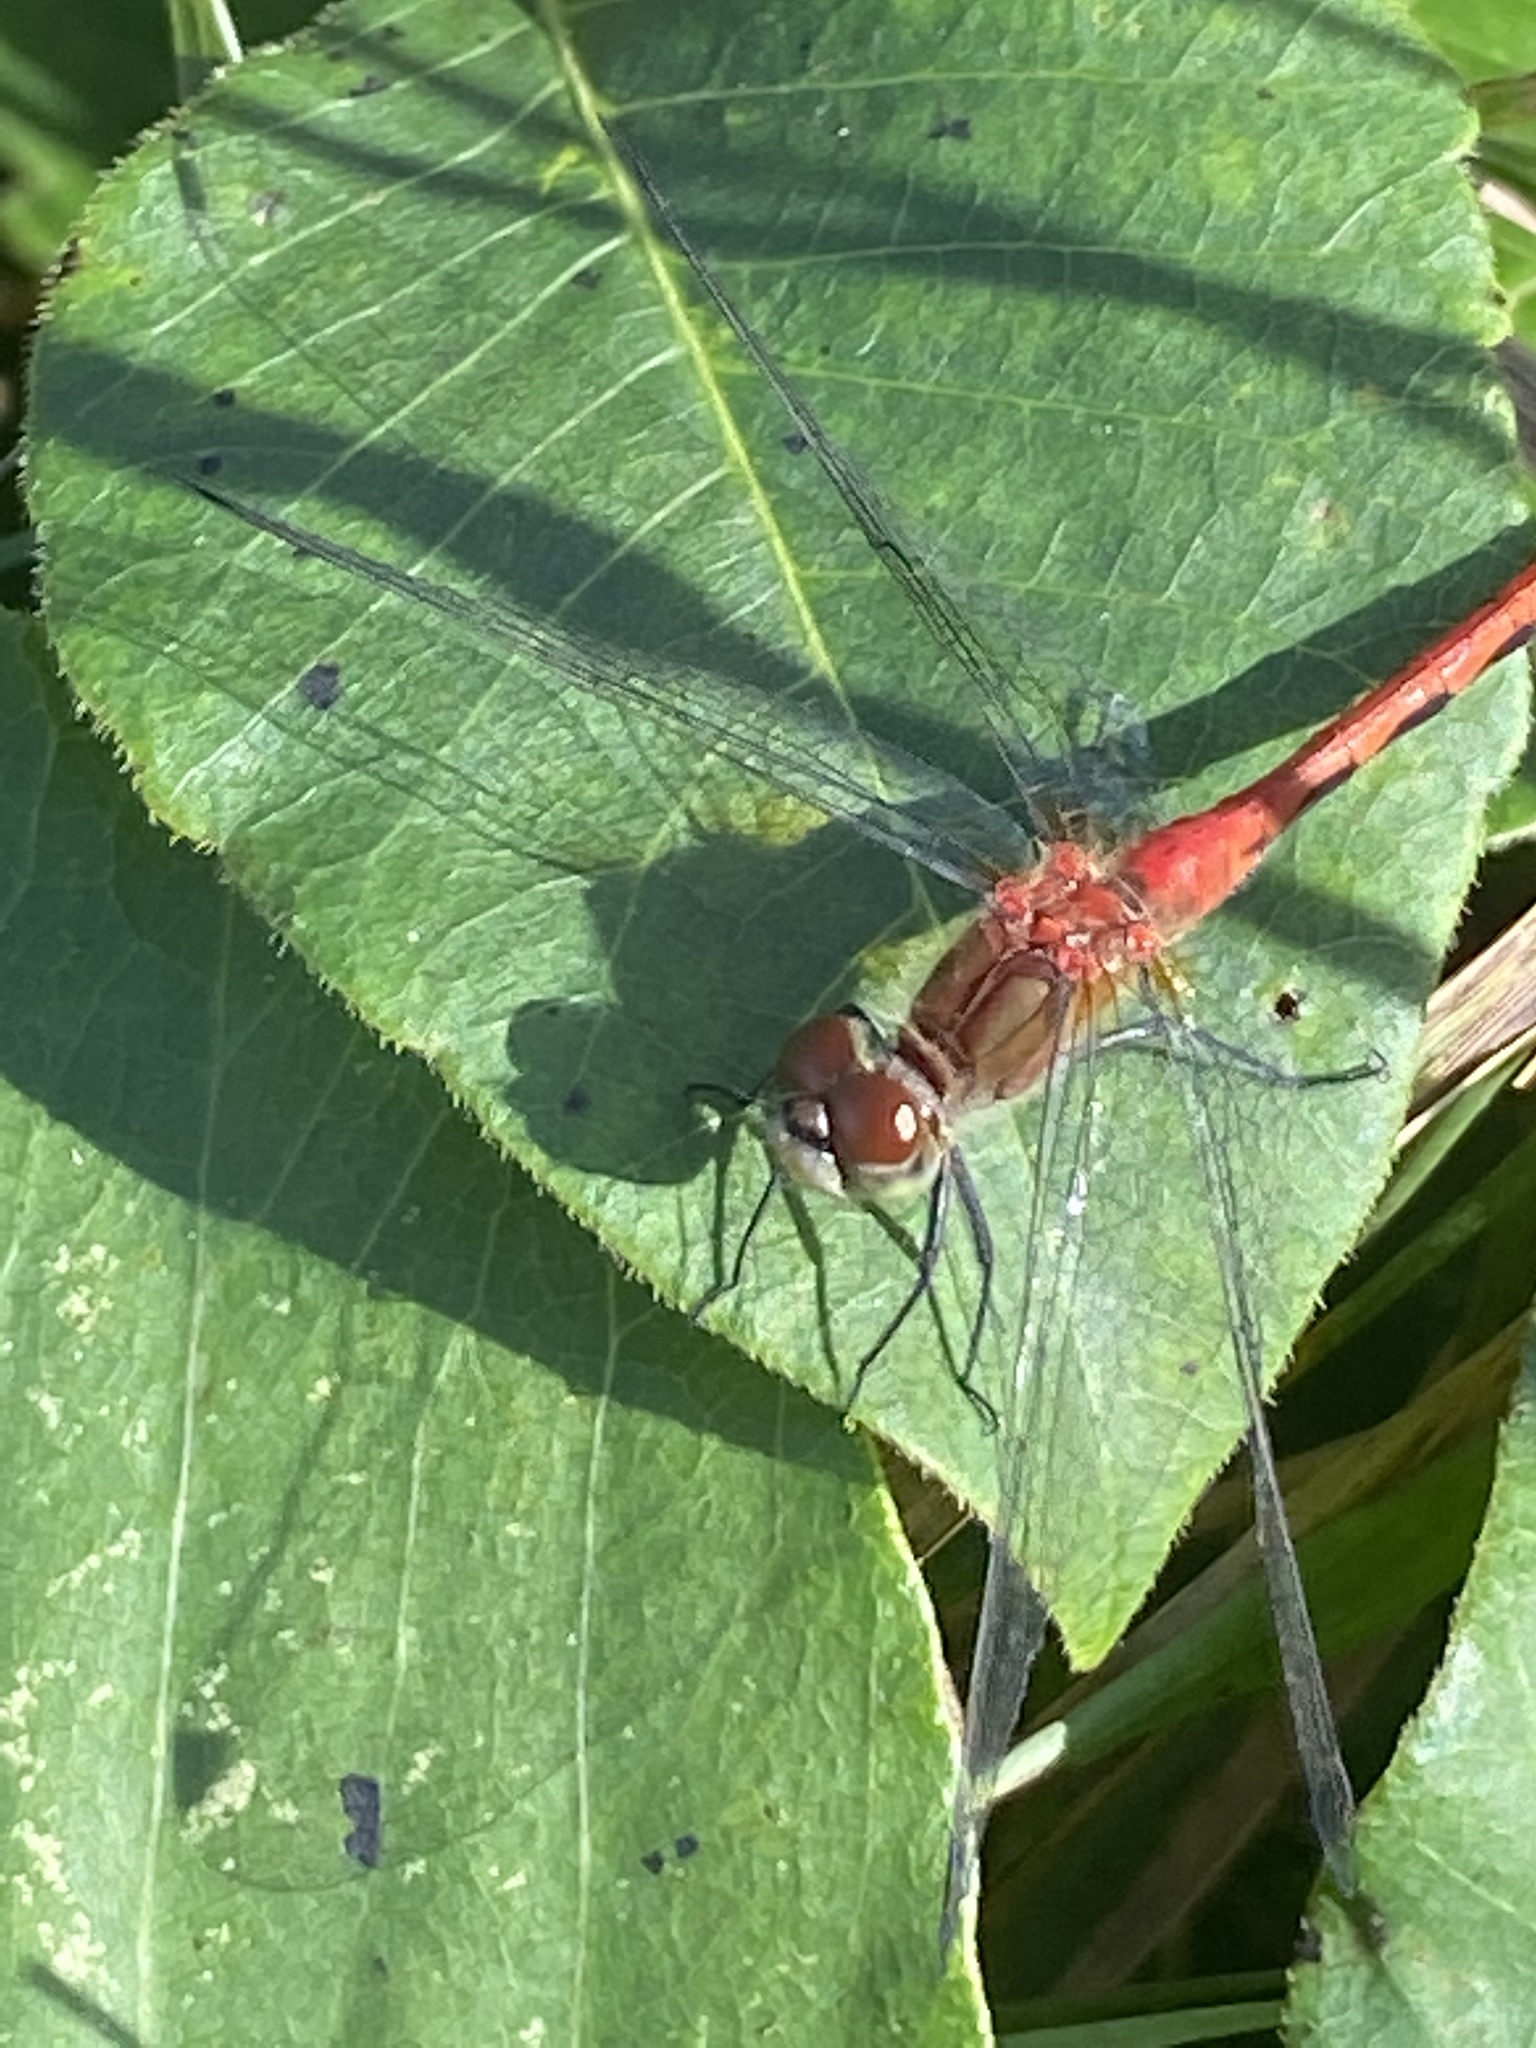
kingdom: Animalia
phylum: Arthropoda
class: Insecta
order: Odonata
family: Libellulidae
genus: Sympetrum
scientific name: Sympetrum obtrusum
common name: White-faced meadowhawk
